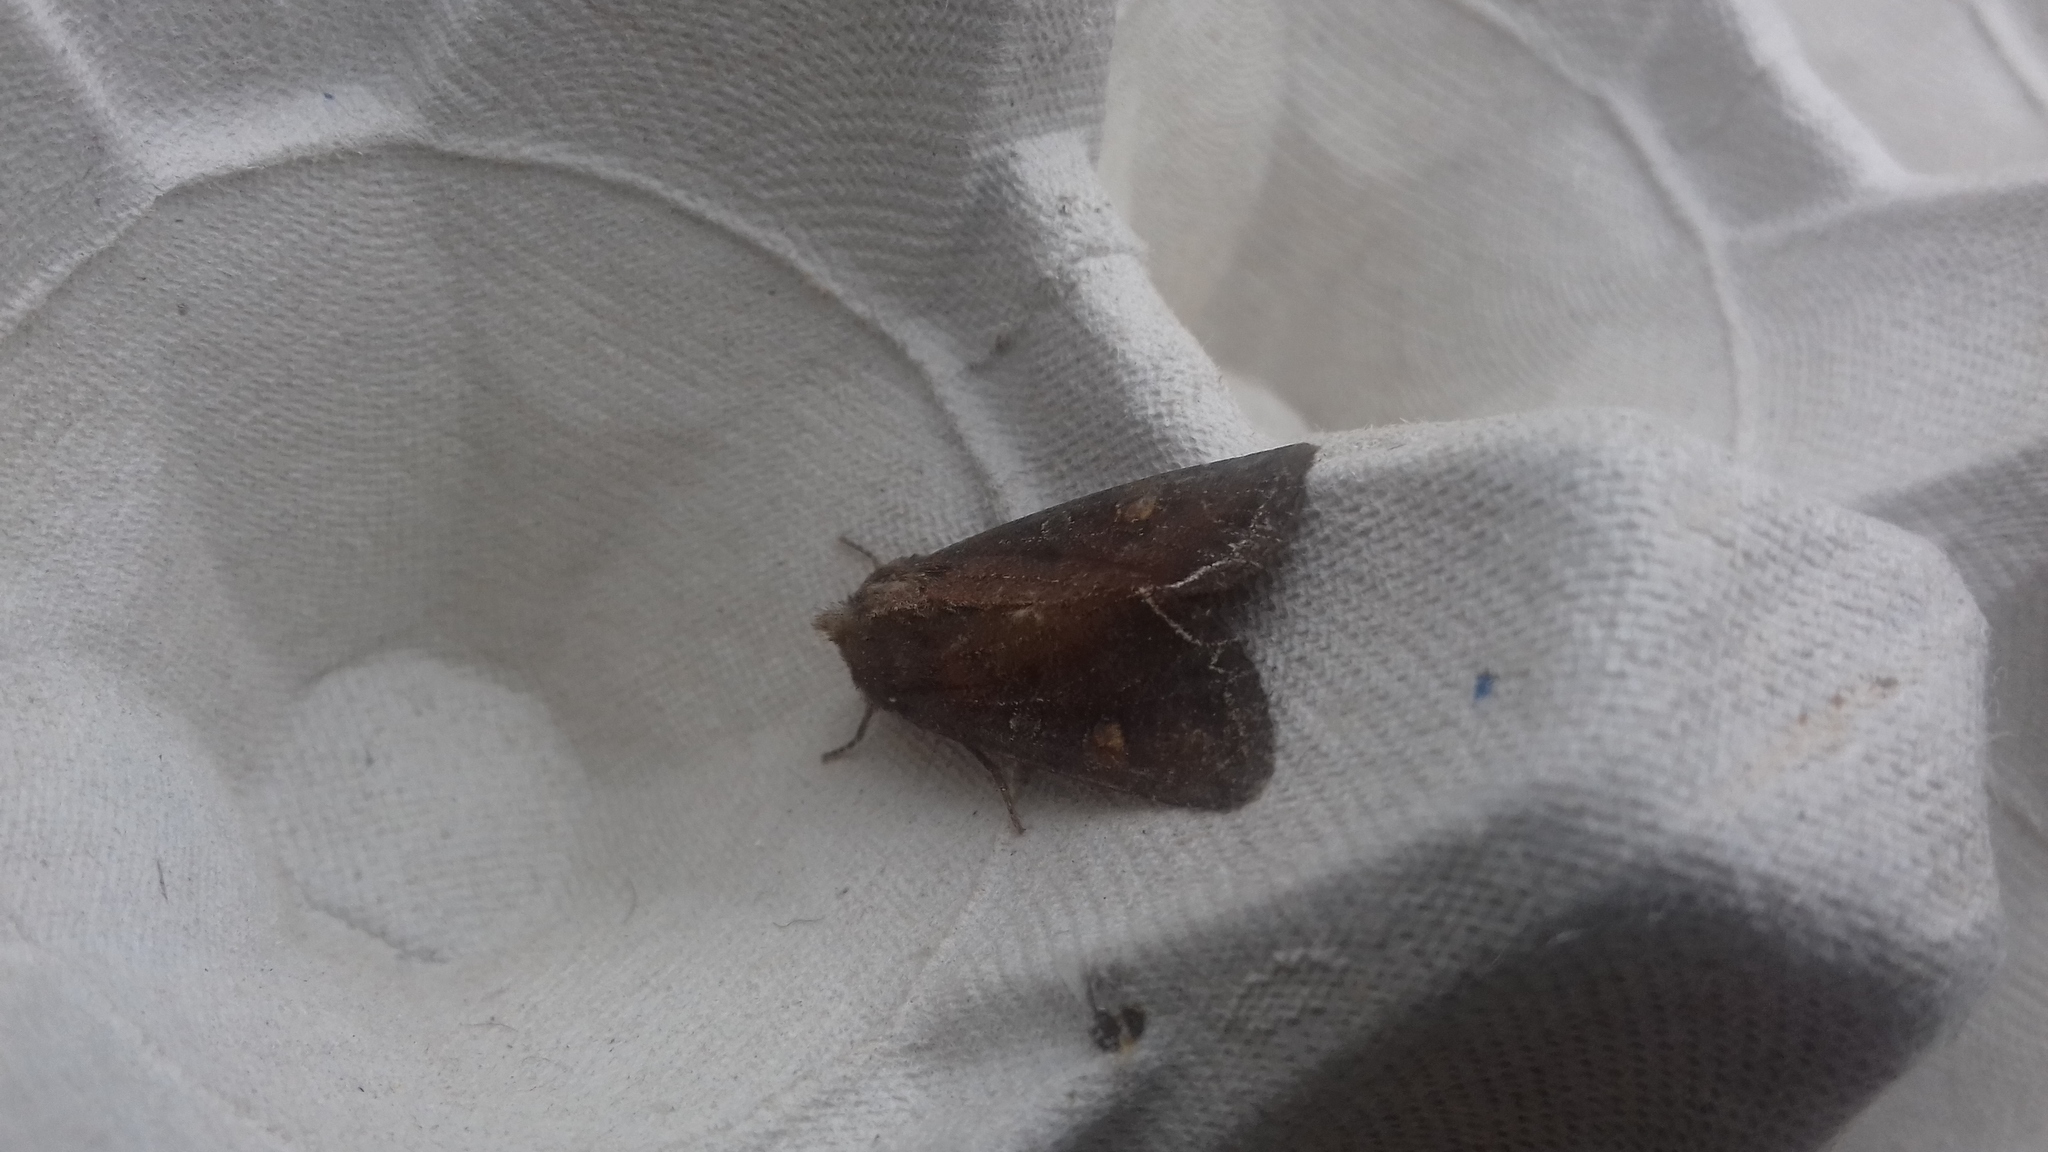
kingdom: Animalia
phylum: Arthropoda
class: Insecta
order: Lepidoptera
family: Noctuidae
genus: Lacanobia
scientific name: Lacanobia oleracea
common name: Bright-line brown-eye
